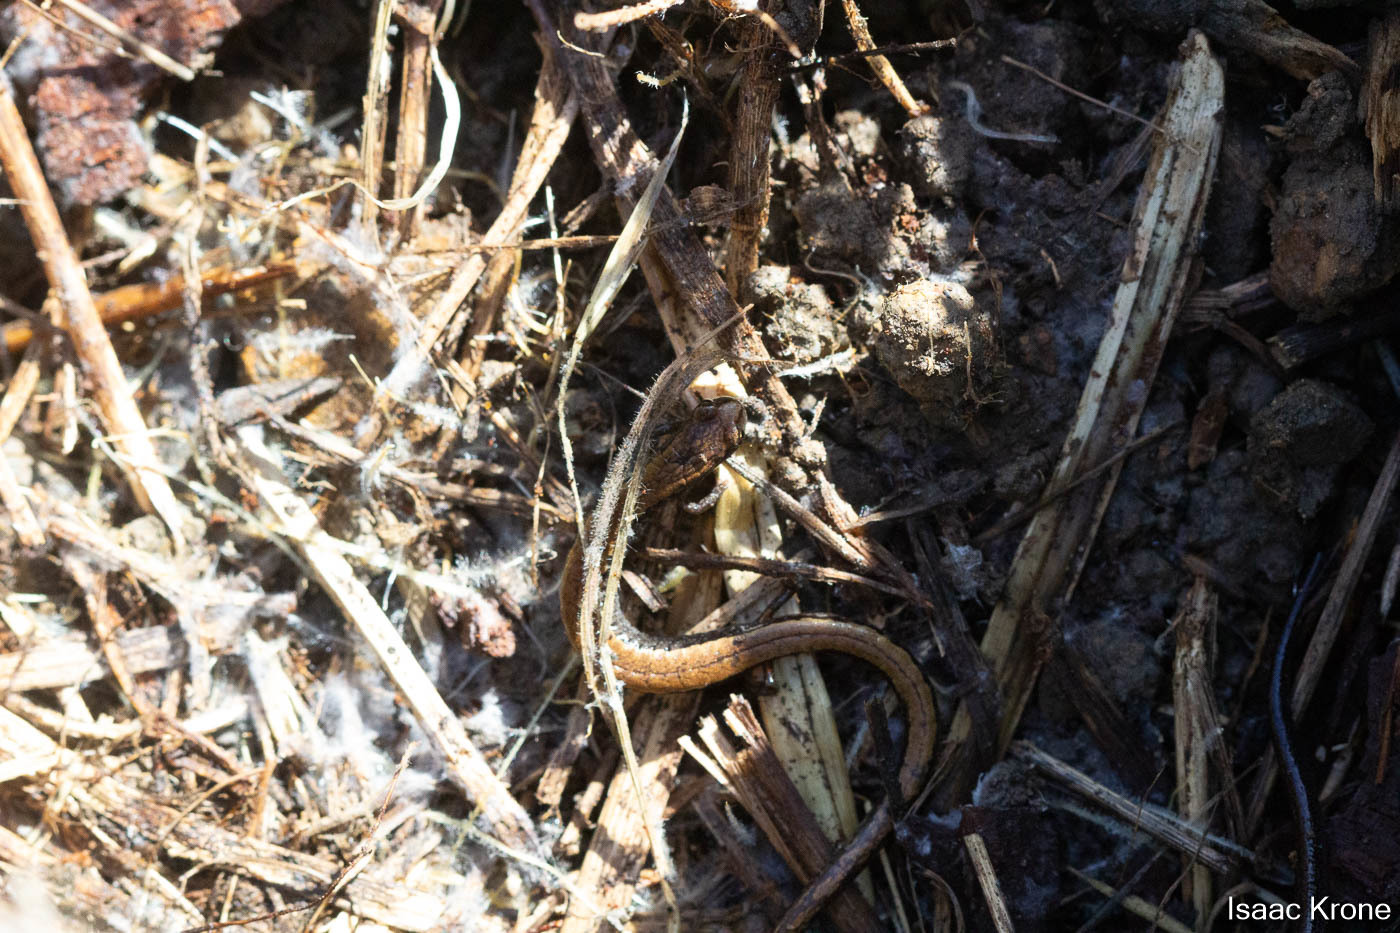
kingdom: Animalia
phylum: Chordata
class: Amphibia
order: Caudata
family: Plethodontidae
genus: Batrachoseps
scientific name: Batrachoseps attenuatus
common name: California slender salamander
